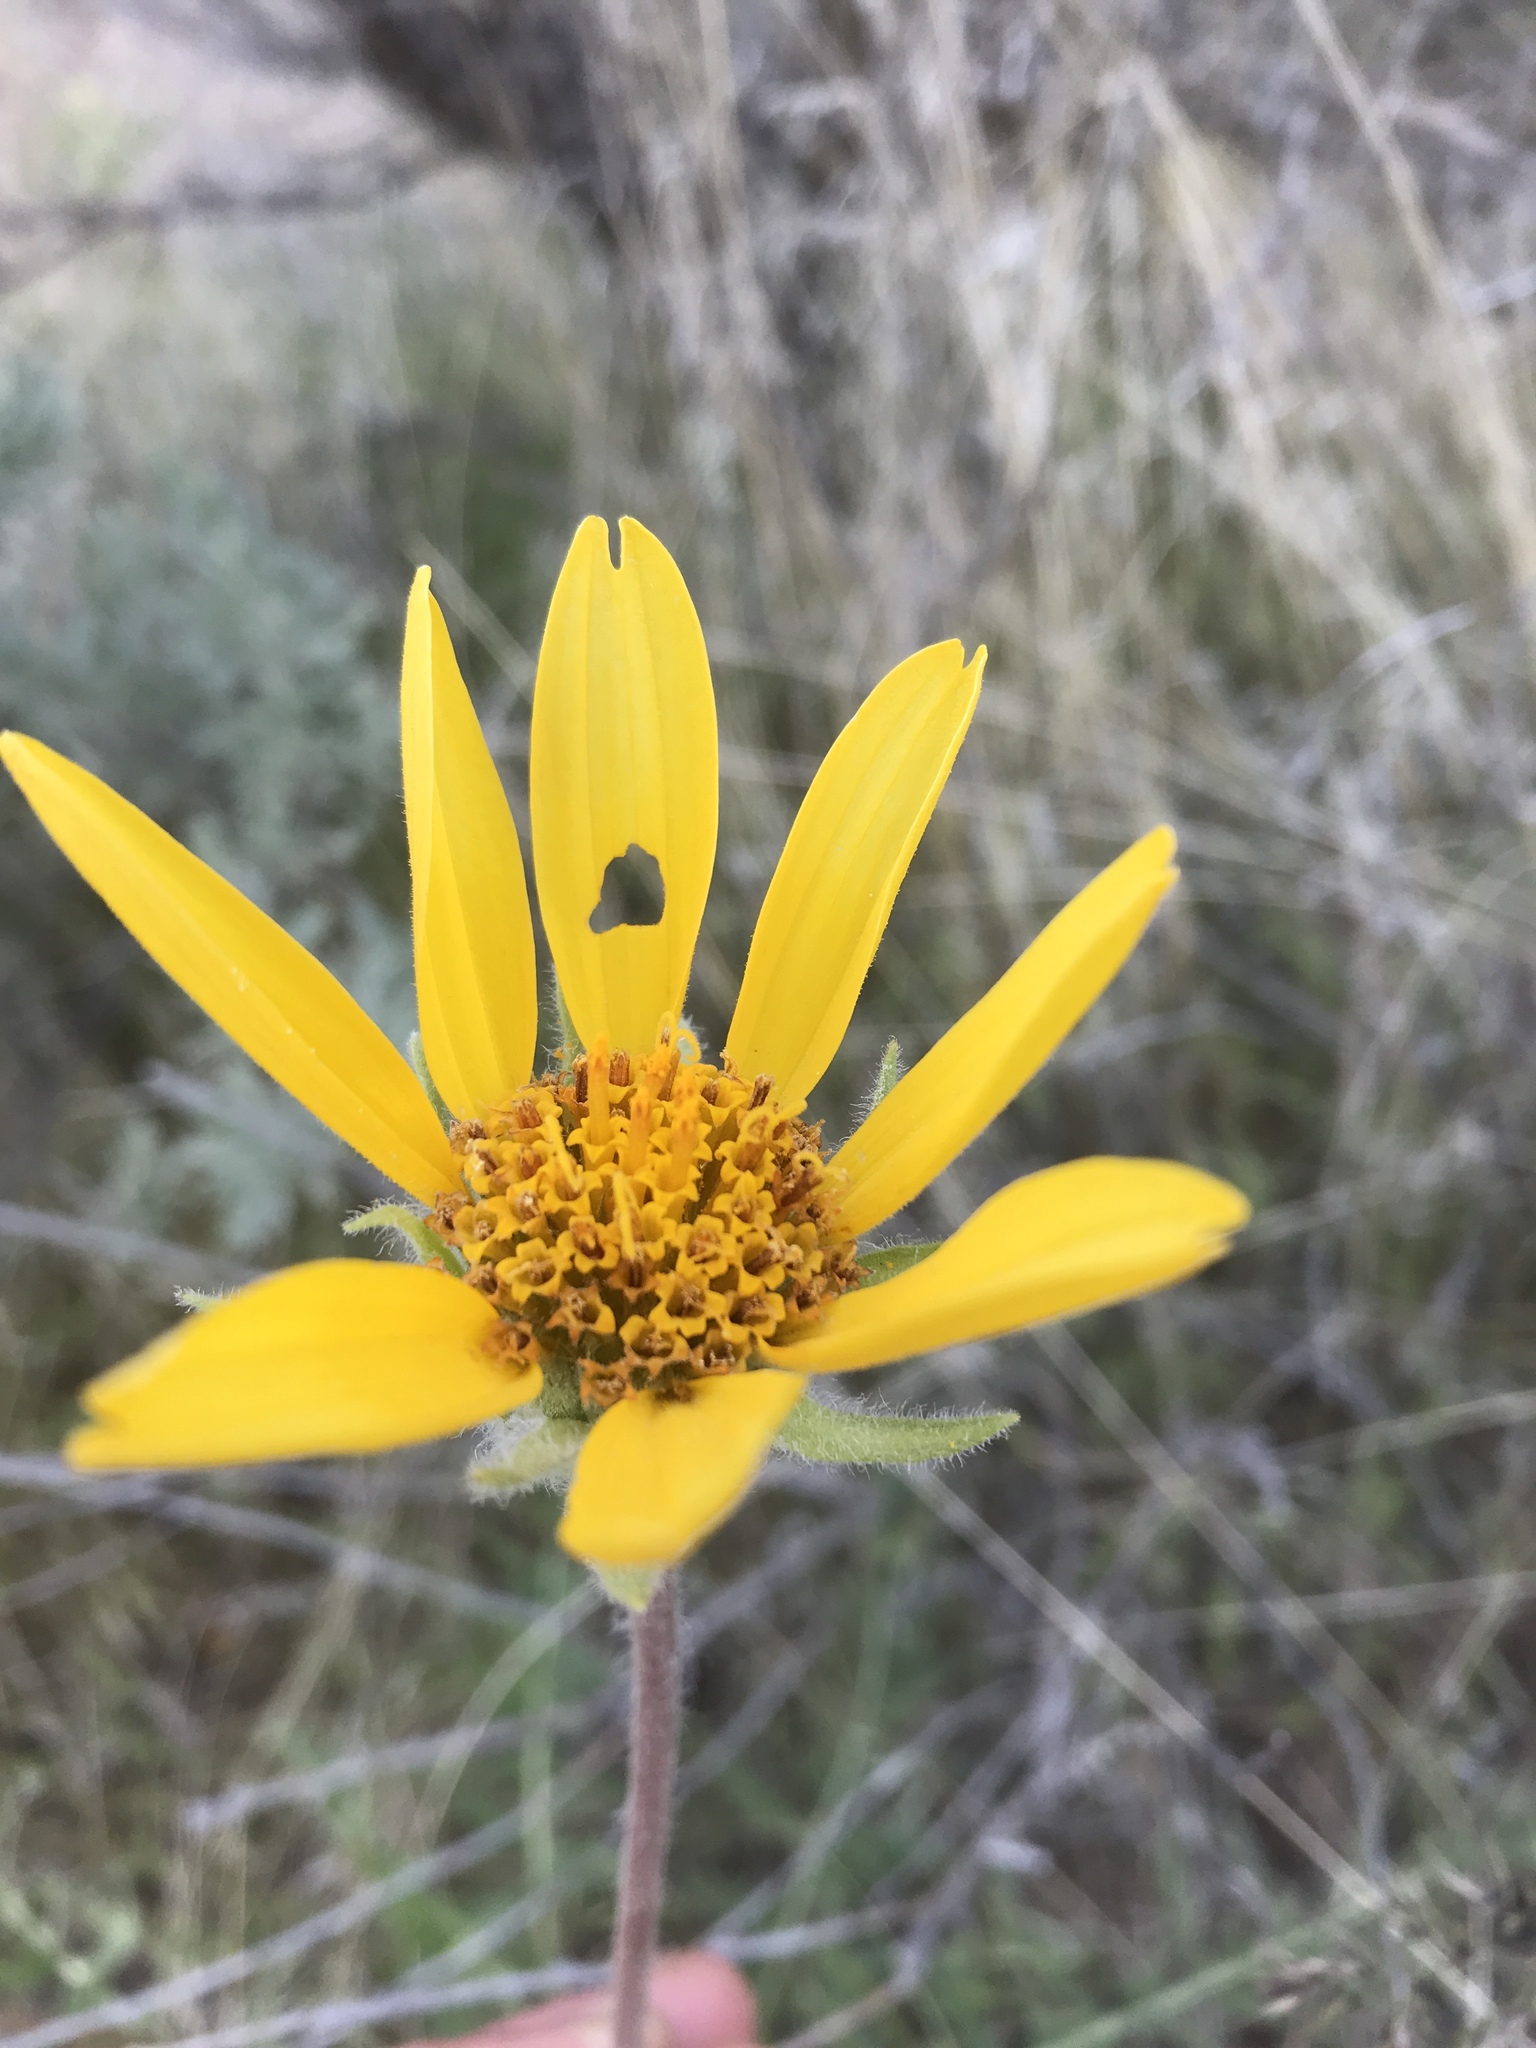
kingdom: Plantae
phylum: Tracheophyta
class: Magnoliopsida
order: Asterales
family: Asteraceae
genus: Balsamorhiza
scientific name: Balsamorhiza hookeri
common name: Hooker's balsamroot
